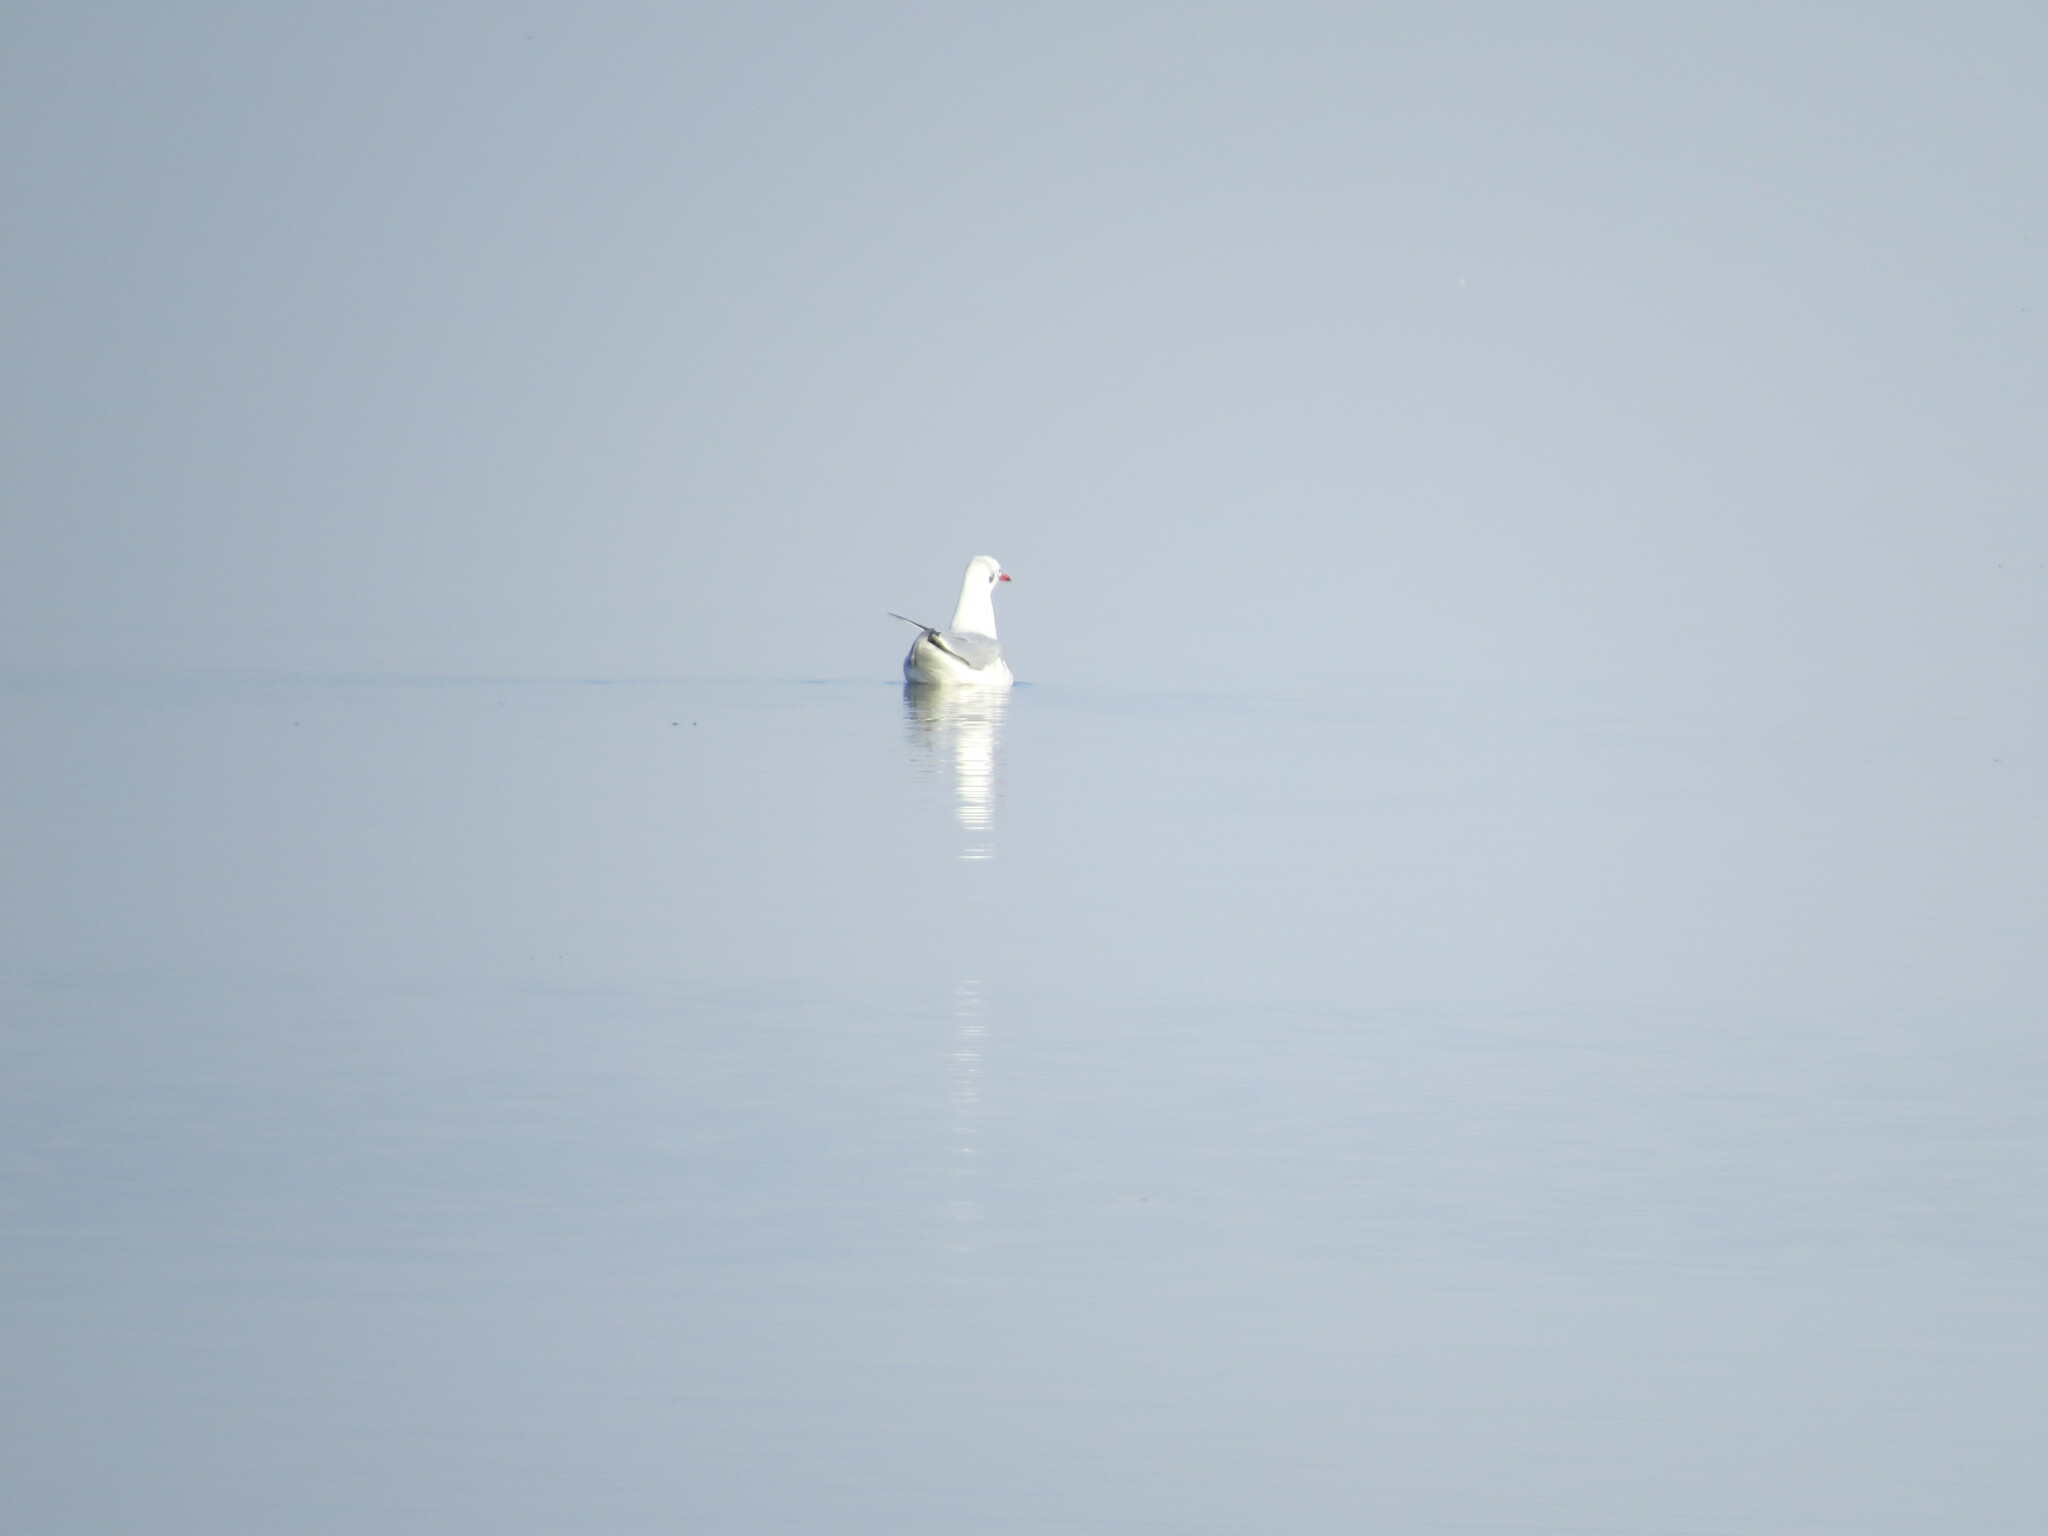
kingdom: Animalia
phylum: Chordata
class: Aves
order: Charadriiformes
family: Laridae
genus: Chroicocephalus
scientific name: Chroicocephalus ridibundus
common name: Black-headed gull
